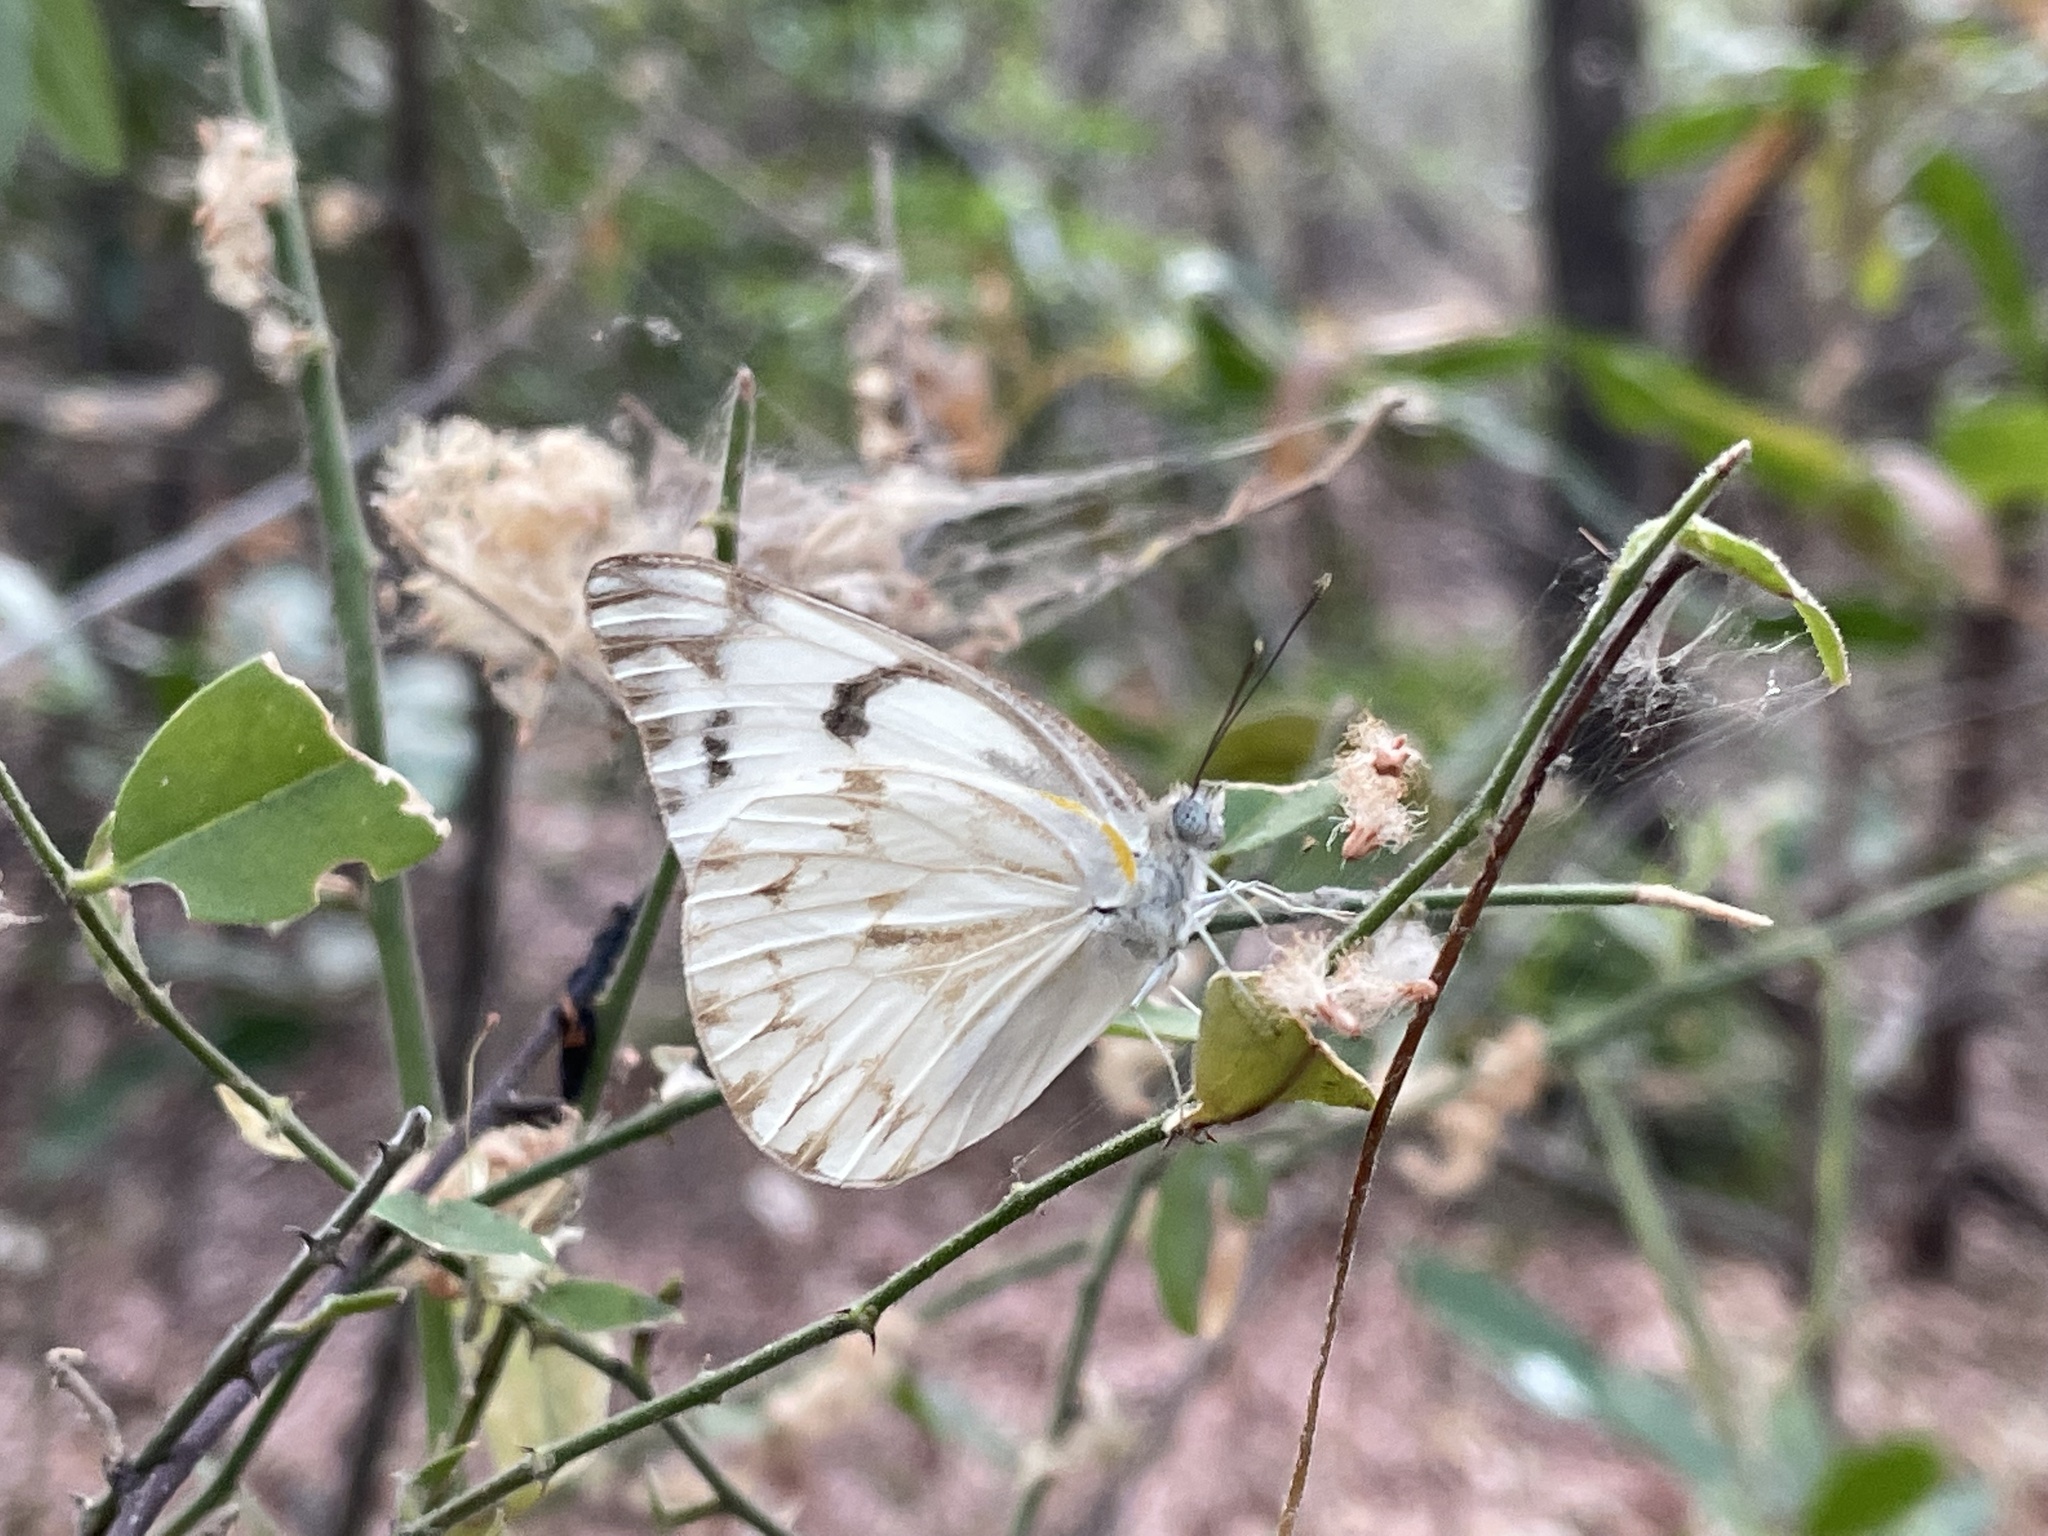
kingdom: Animalia
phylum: Arthropoda
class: Insecta
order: Lepidoptera
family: Pieridae
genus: Belenois
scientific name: Belenois gidica
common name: Pointed caper white
